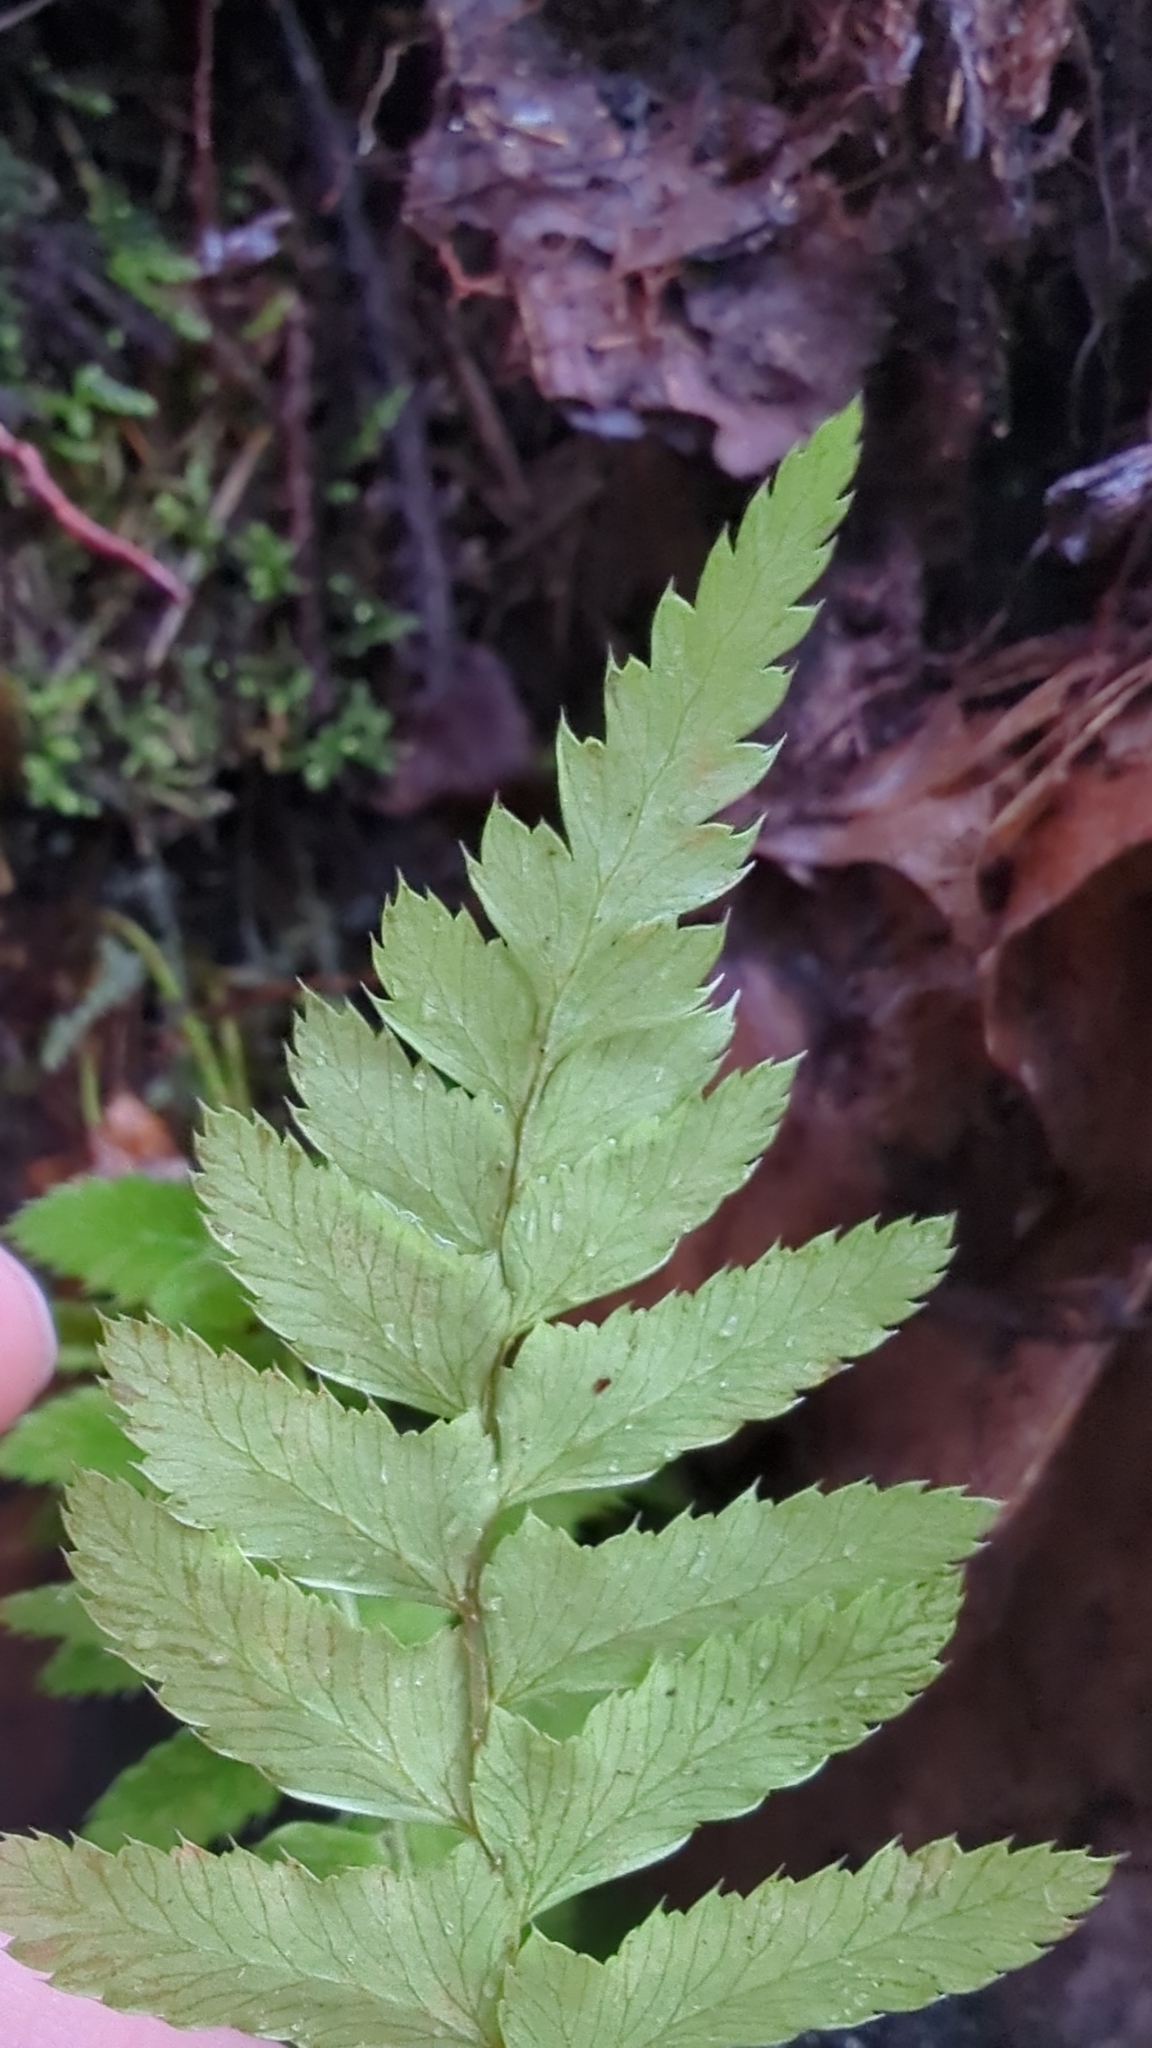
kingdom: Plantae
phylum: Tracheophyta
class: Polypodiopsida
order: Polypodiales
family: Polypodiaceae
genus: Polypodium
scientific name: Polypodium glycyrrhiza
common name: Licorice fern
